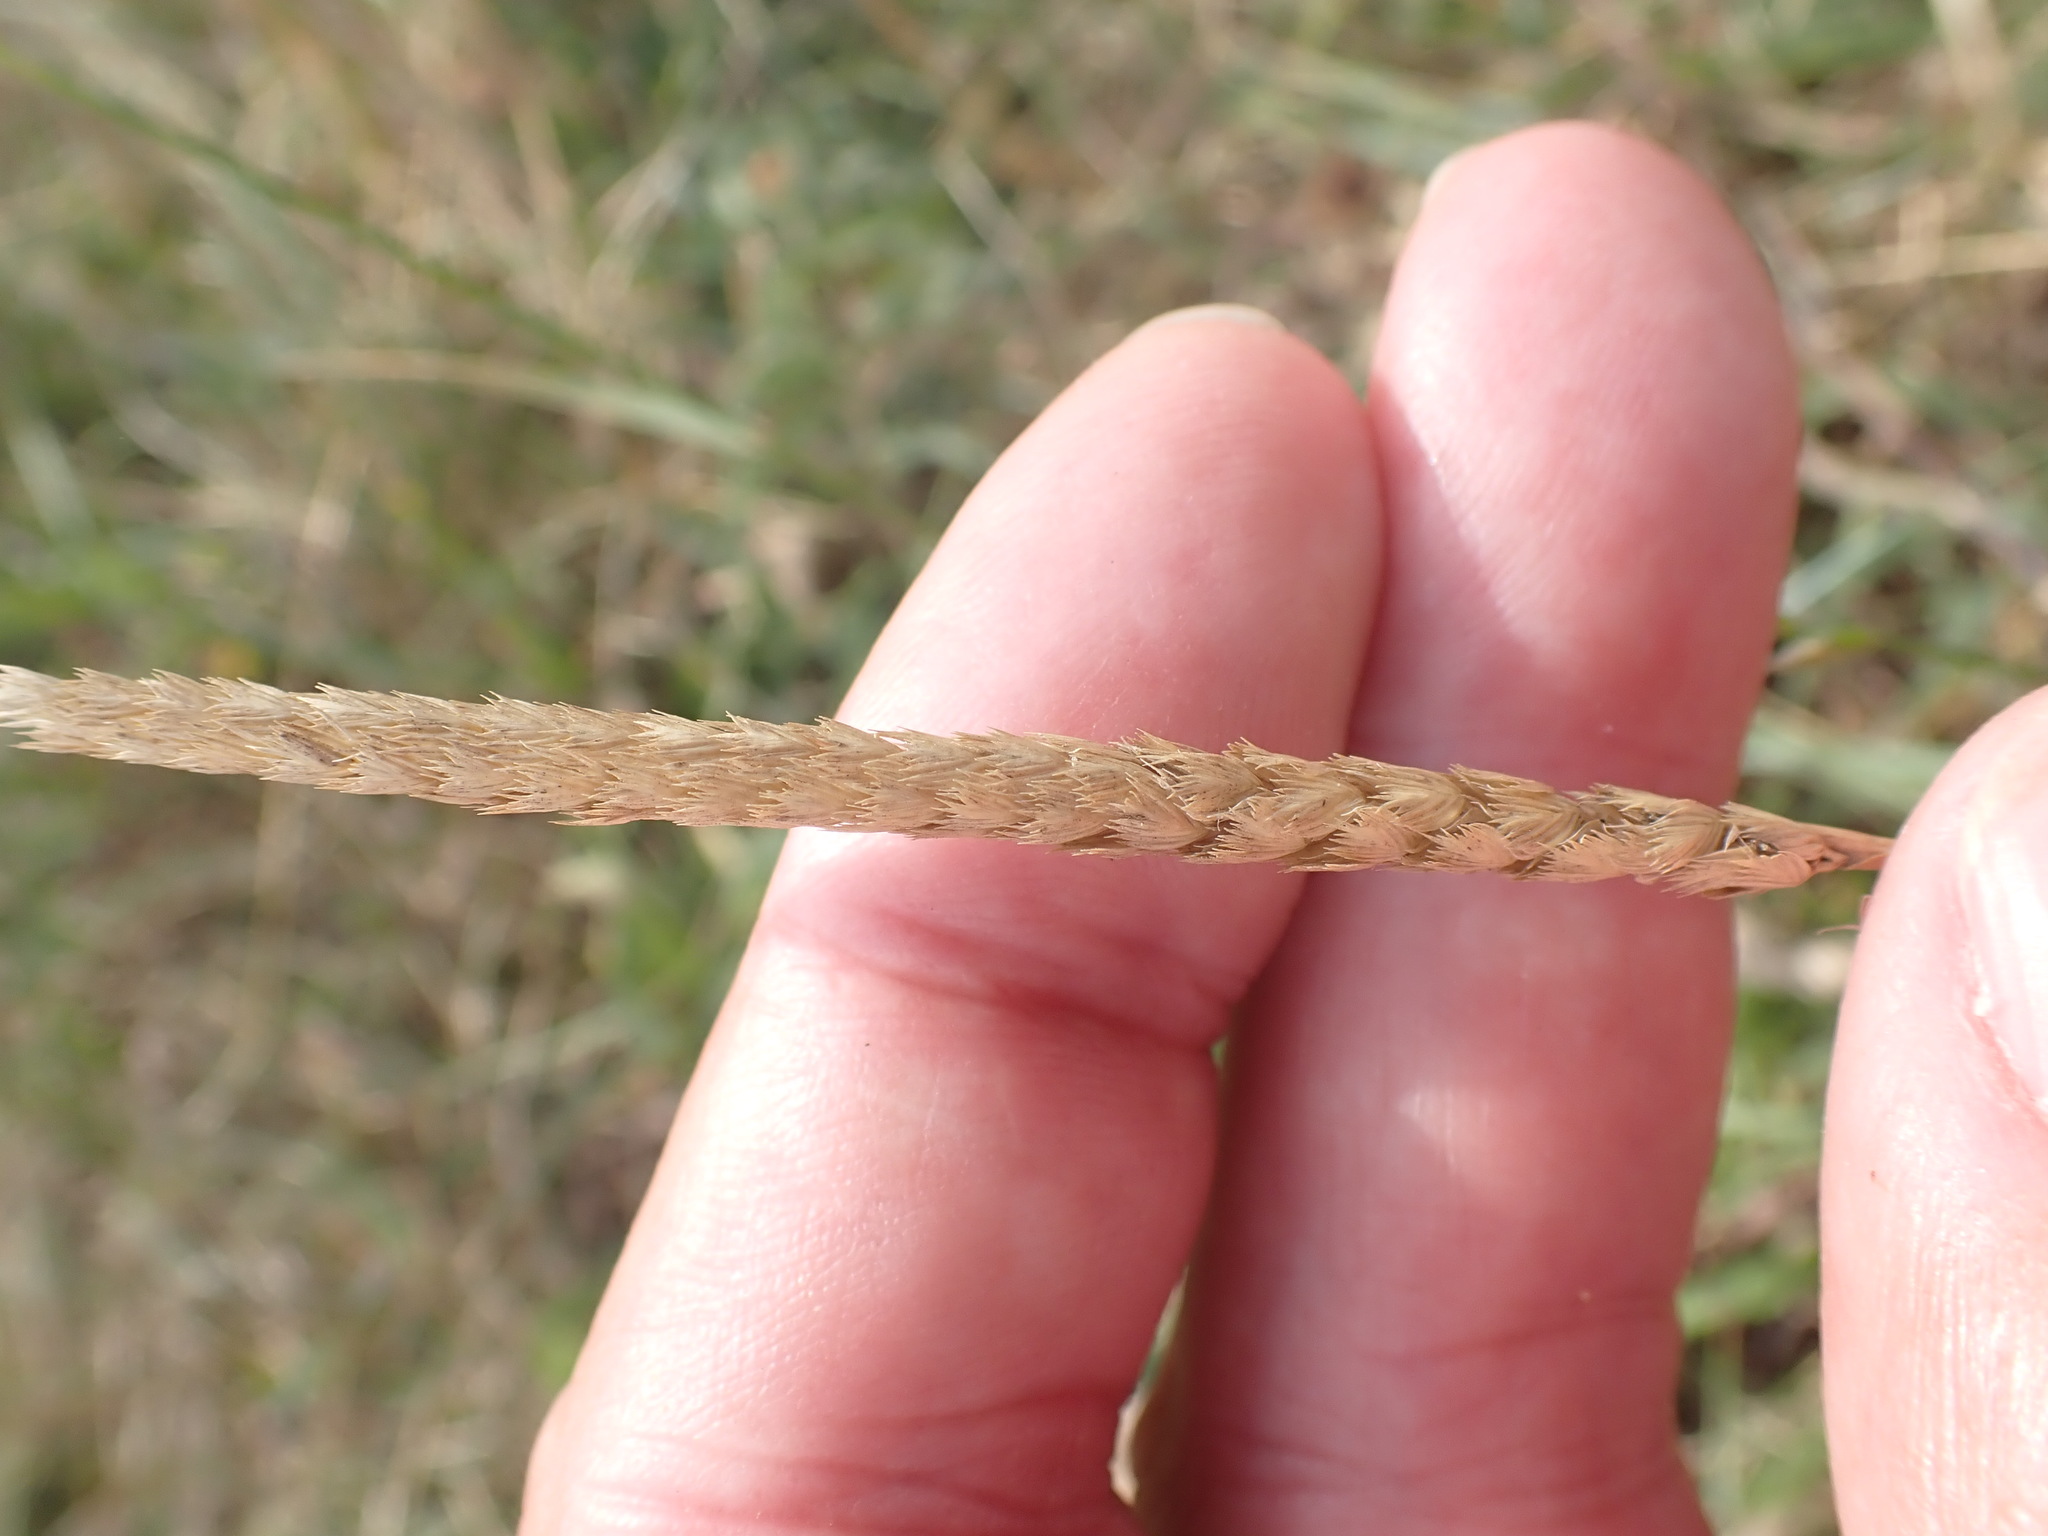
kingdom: Plantae
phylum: Tracheophyta
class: Liliopsida
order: Poales
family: Poaceae
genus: Cynosurus
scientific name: Cynosurus cristatus
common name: Crested dog's-tail
